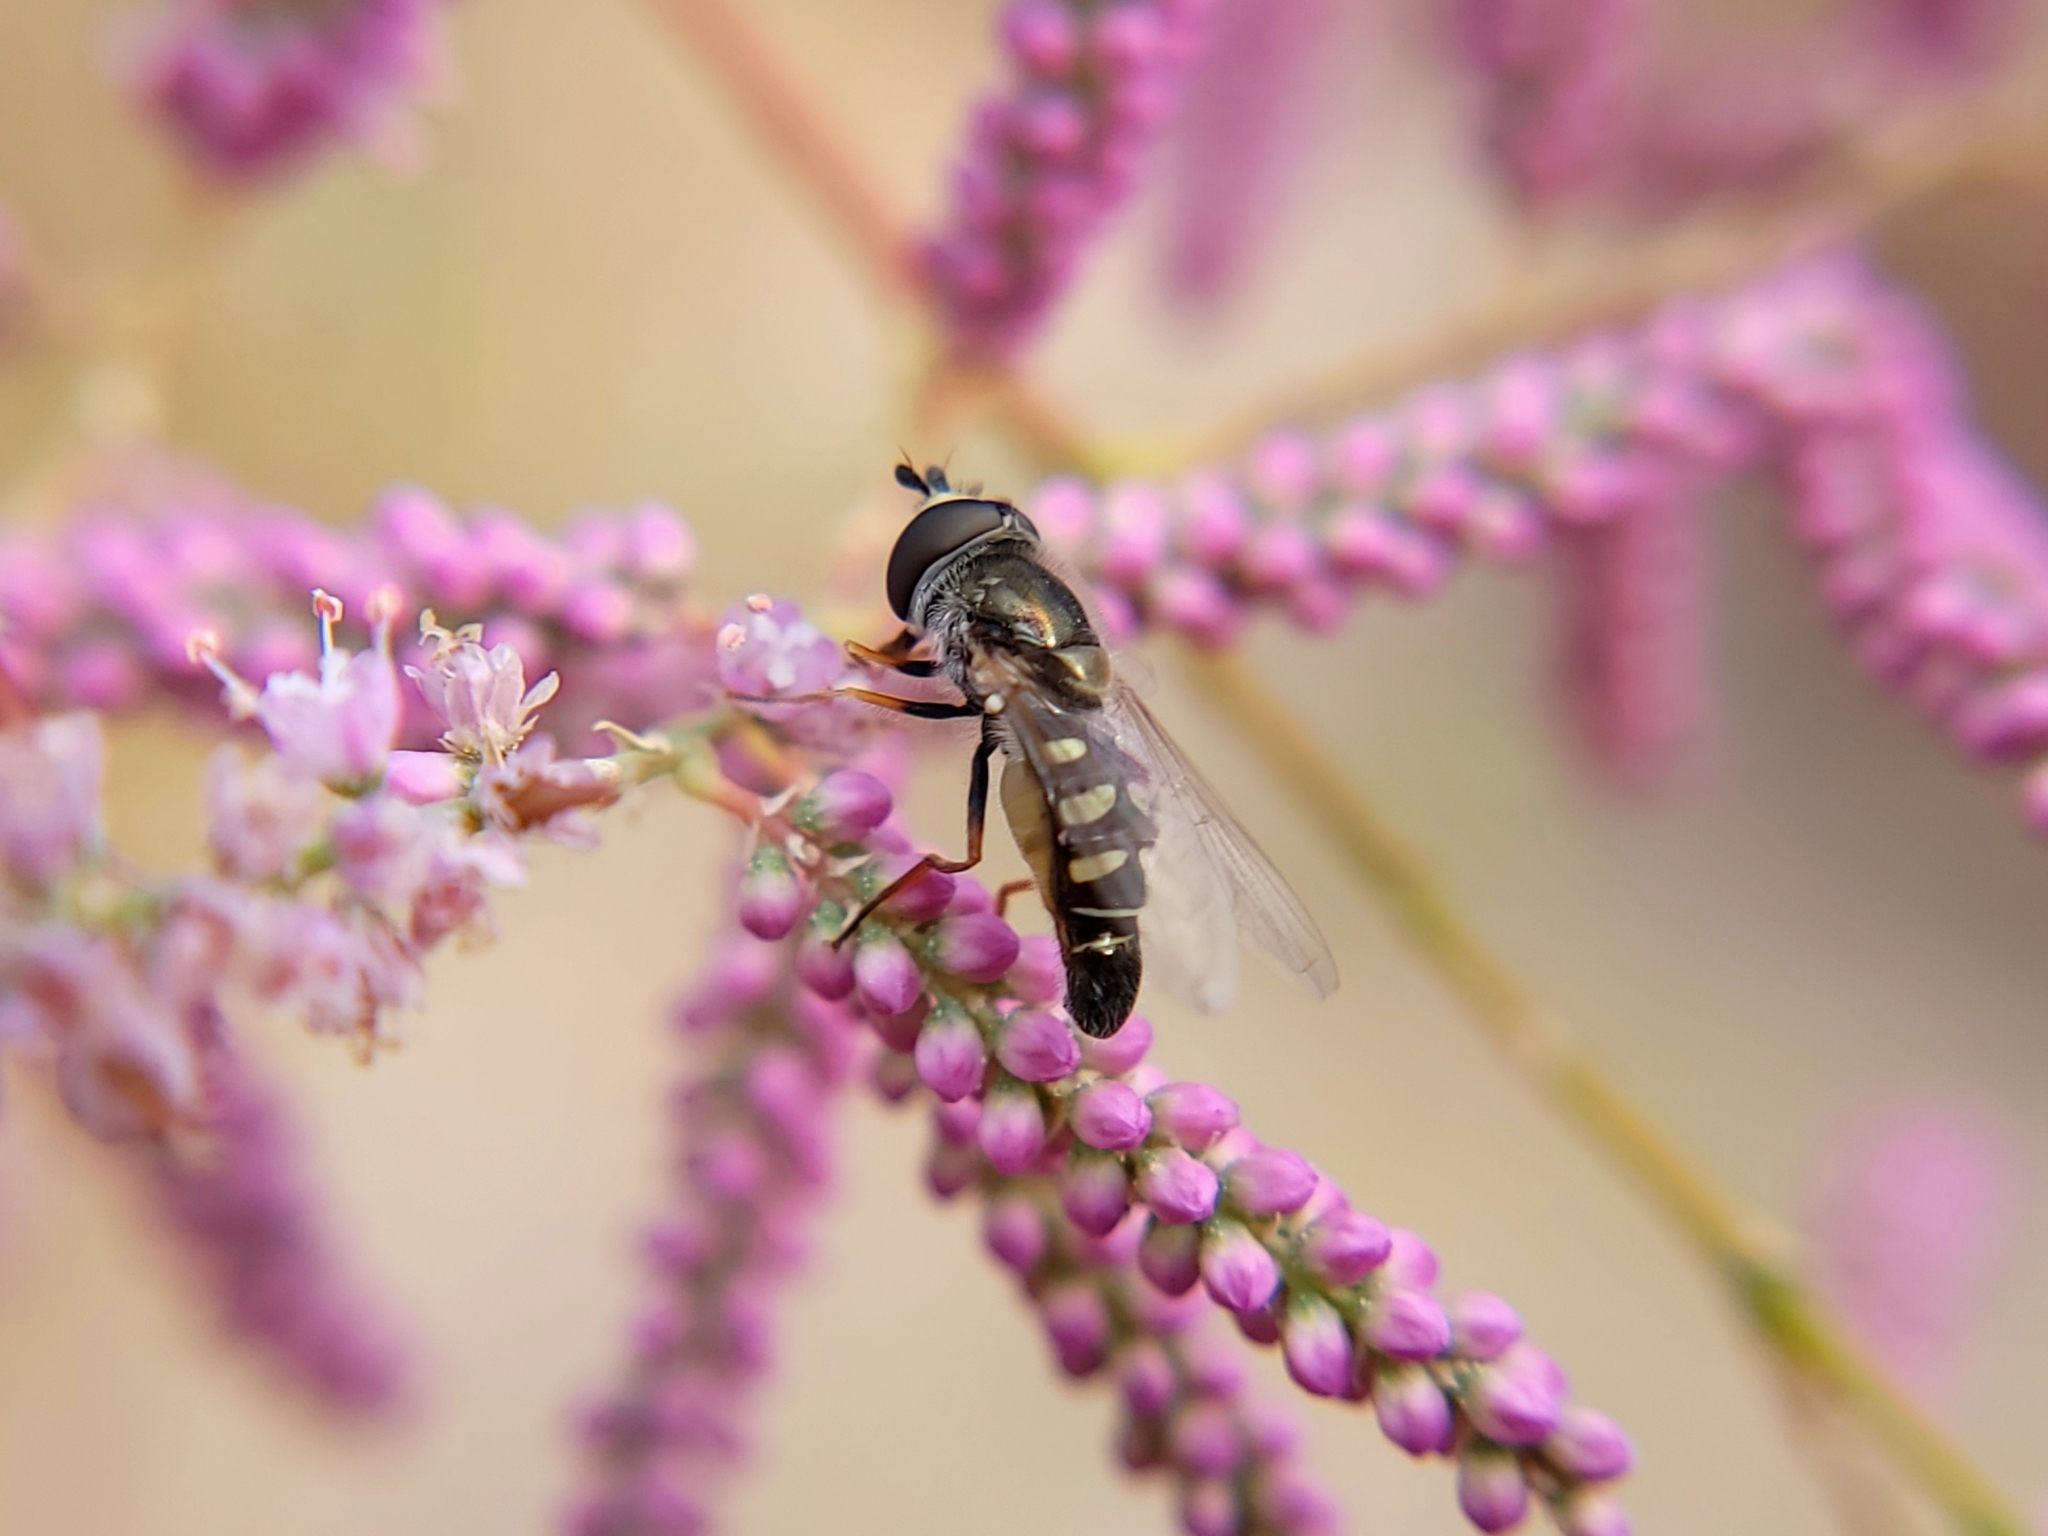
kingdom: Animalia
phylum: Arthropoda
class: Insecta
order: Diptera
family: Syrphidae
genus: Eupeodes
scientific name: Eupeodes volucris
